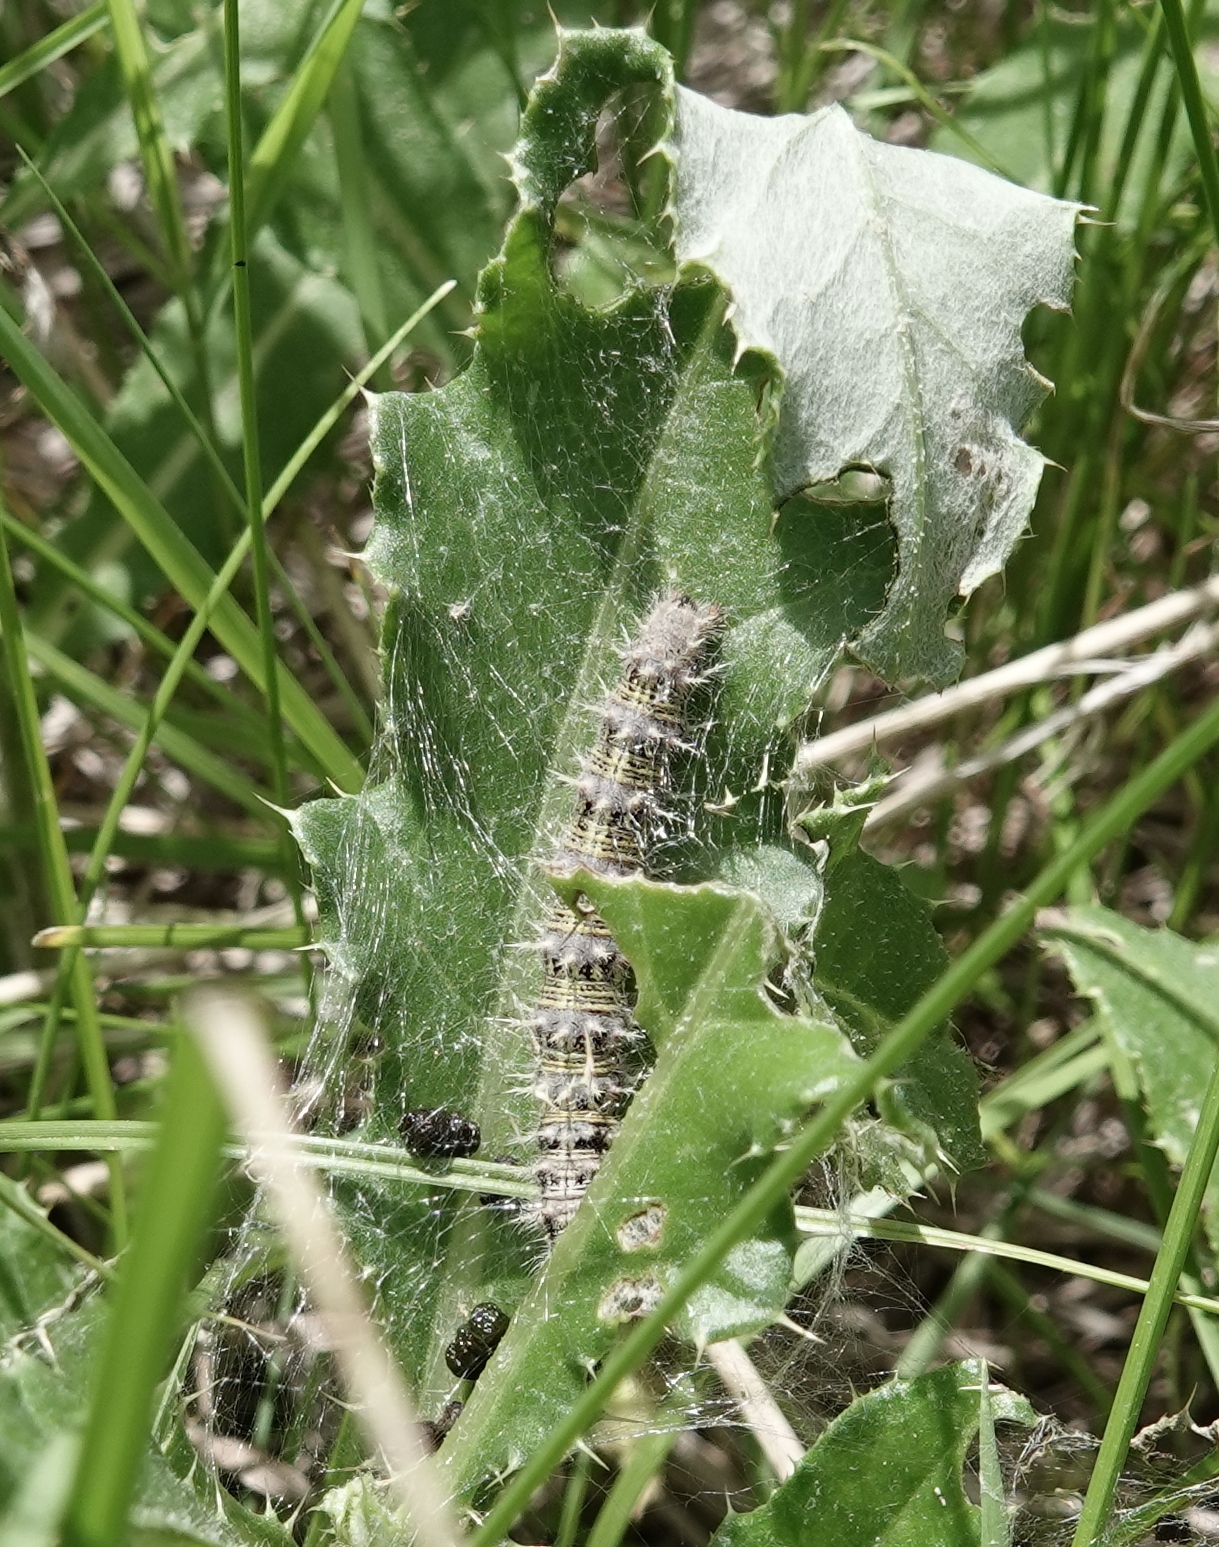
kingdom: Animalia
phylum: Arthropoda
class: Insecta
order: Lepidoptera
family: Nymphalidae
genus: Vanessa
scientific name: Vanessa cardui
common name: Painted lady
